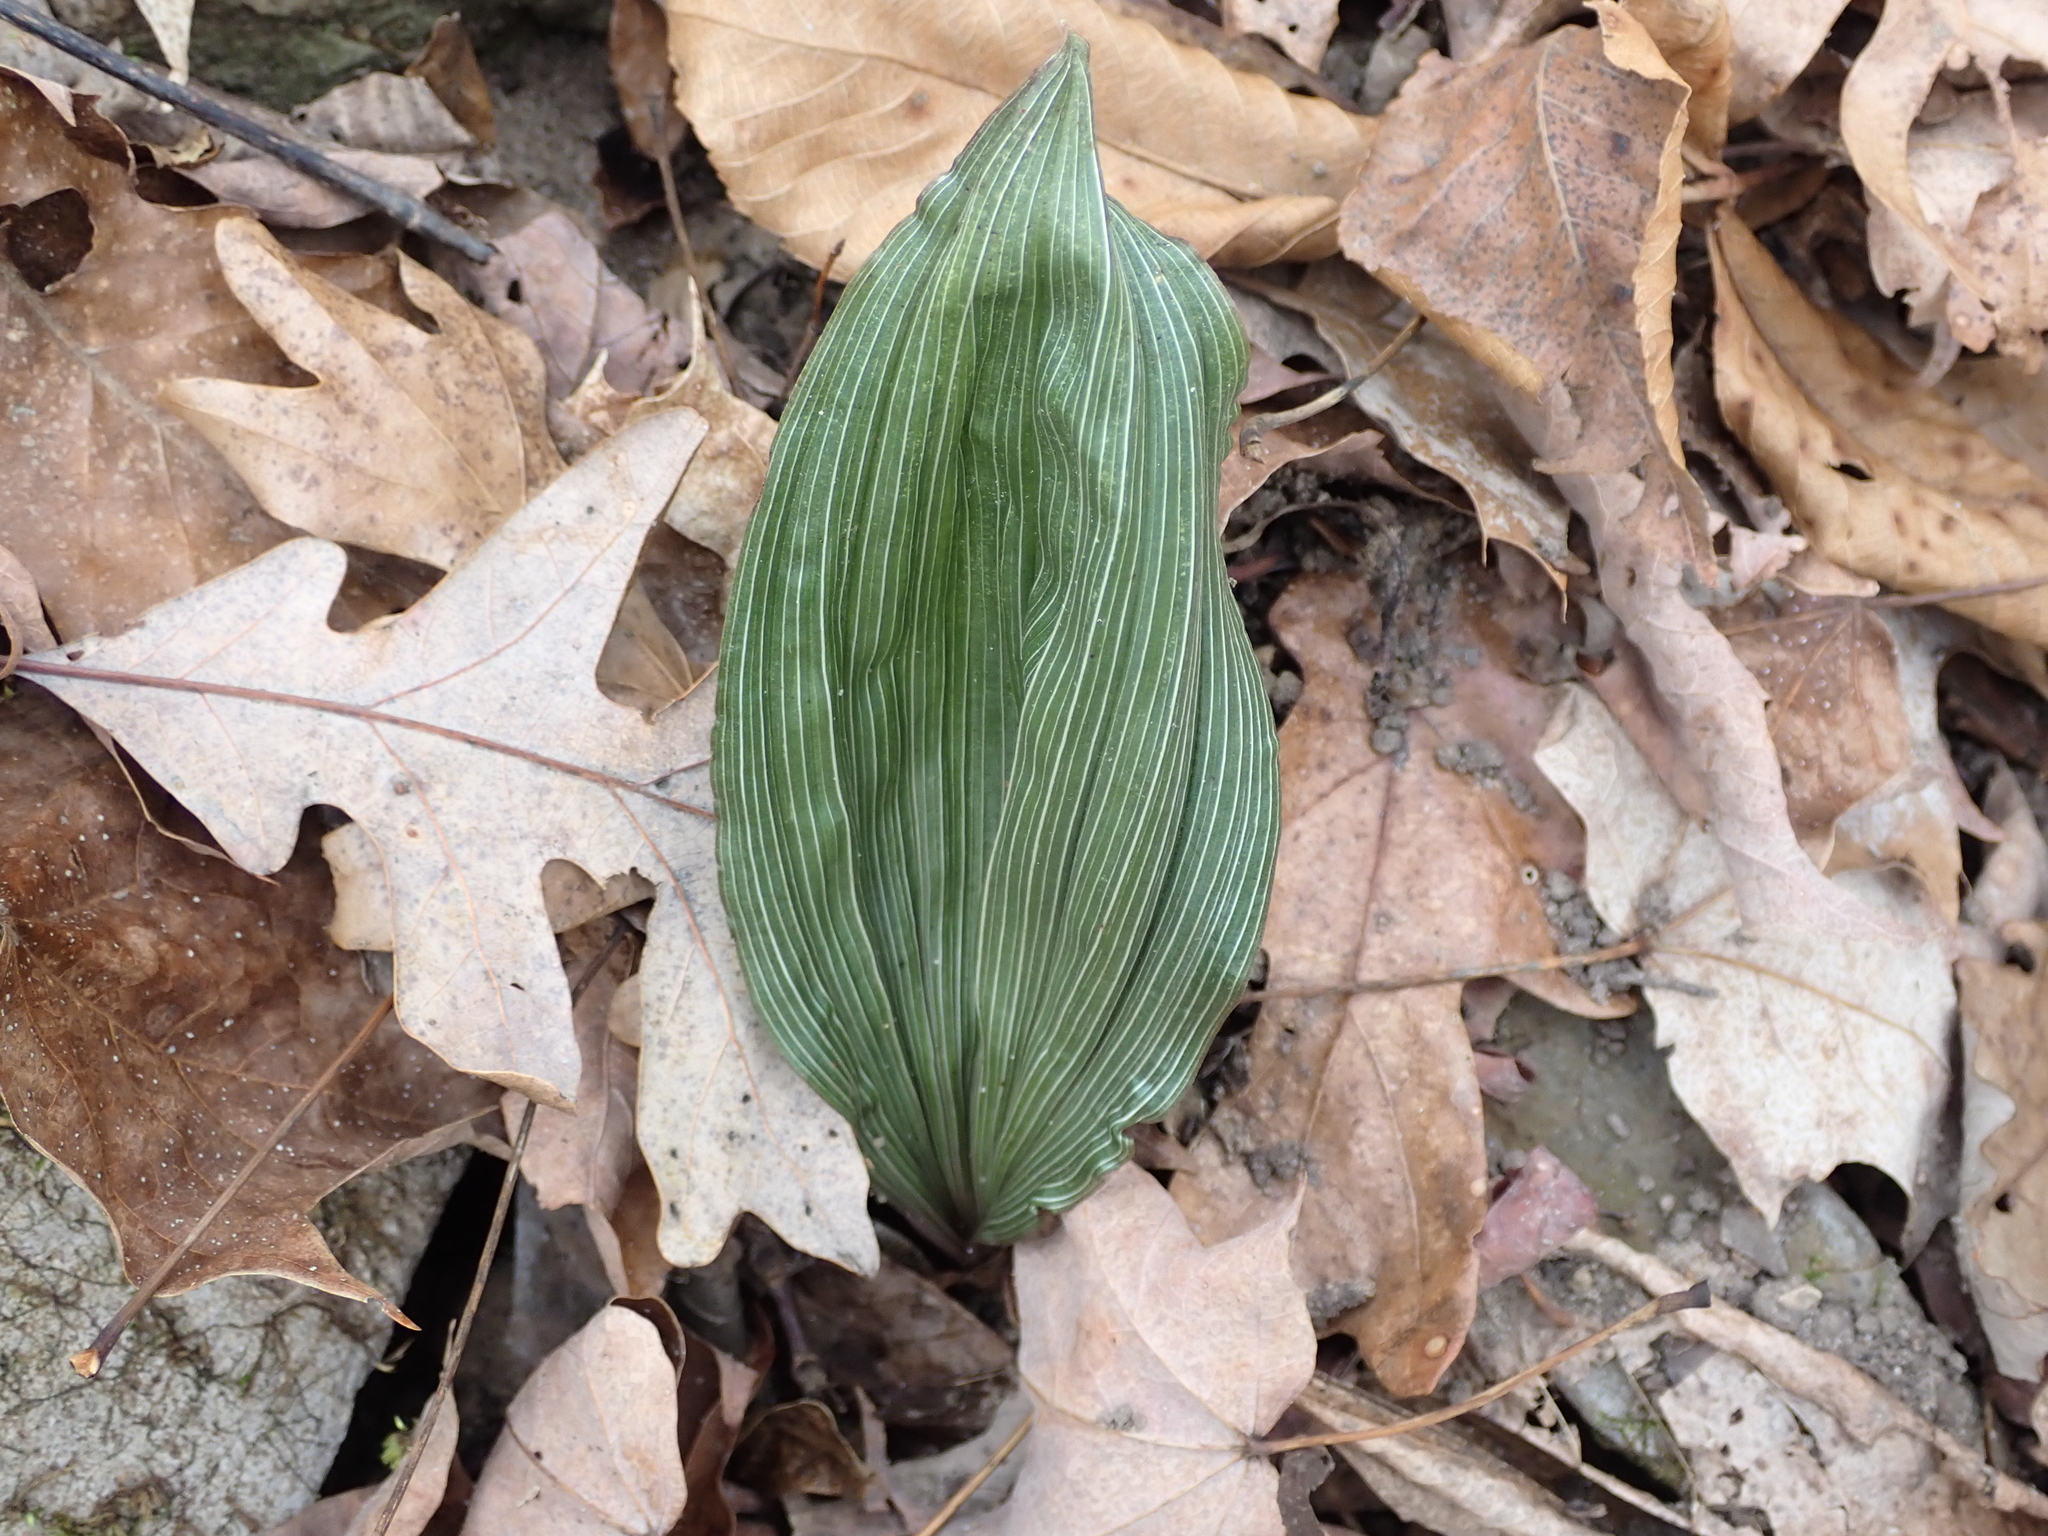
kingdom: Plantae
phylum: Tracheophyta
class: Liliopsida
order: Asparagales
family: Orchidaceae
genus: Aplectrum
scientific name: Aplectrum hyemale
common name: Adam-and-eve
